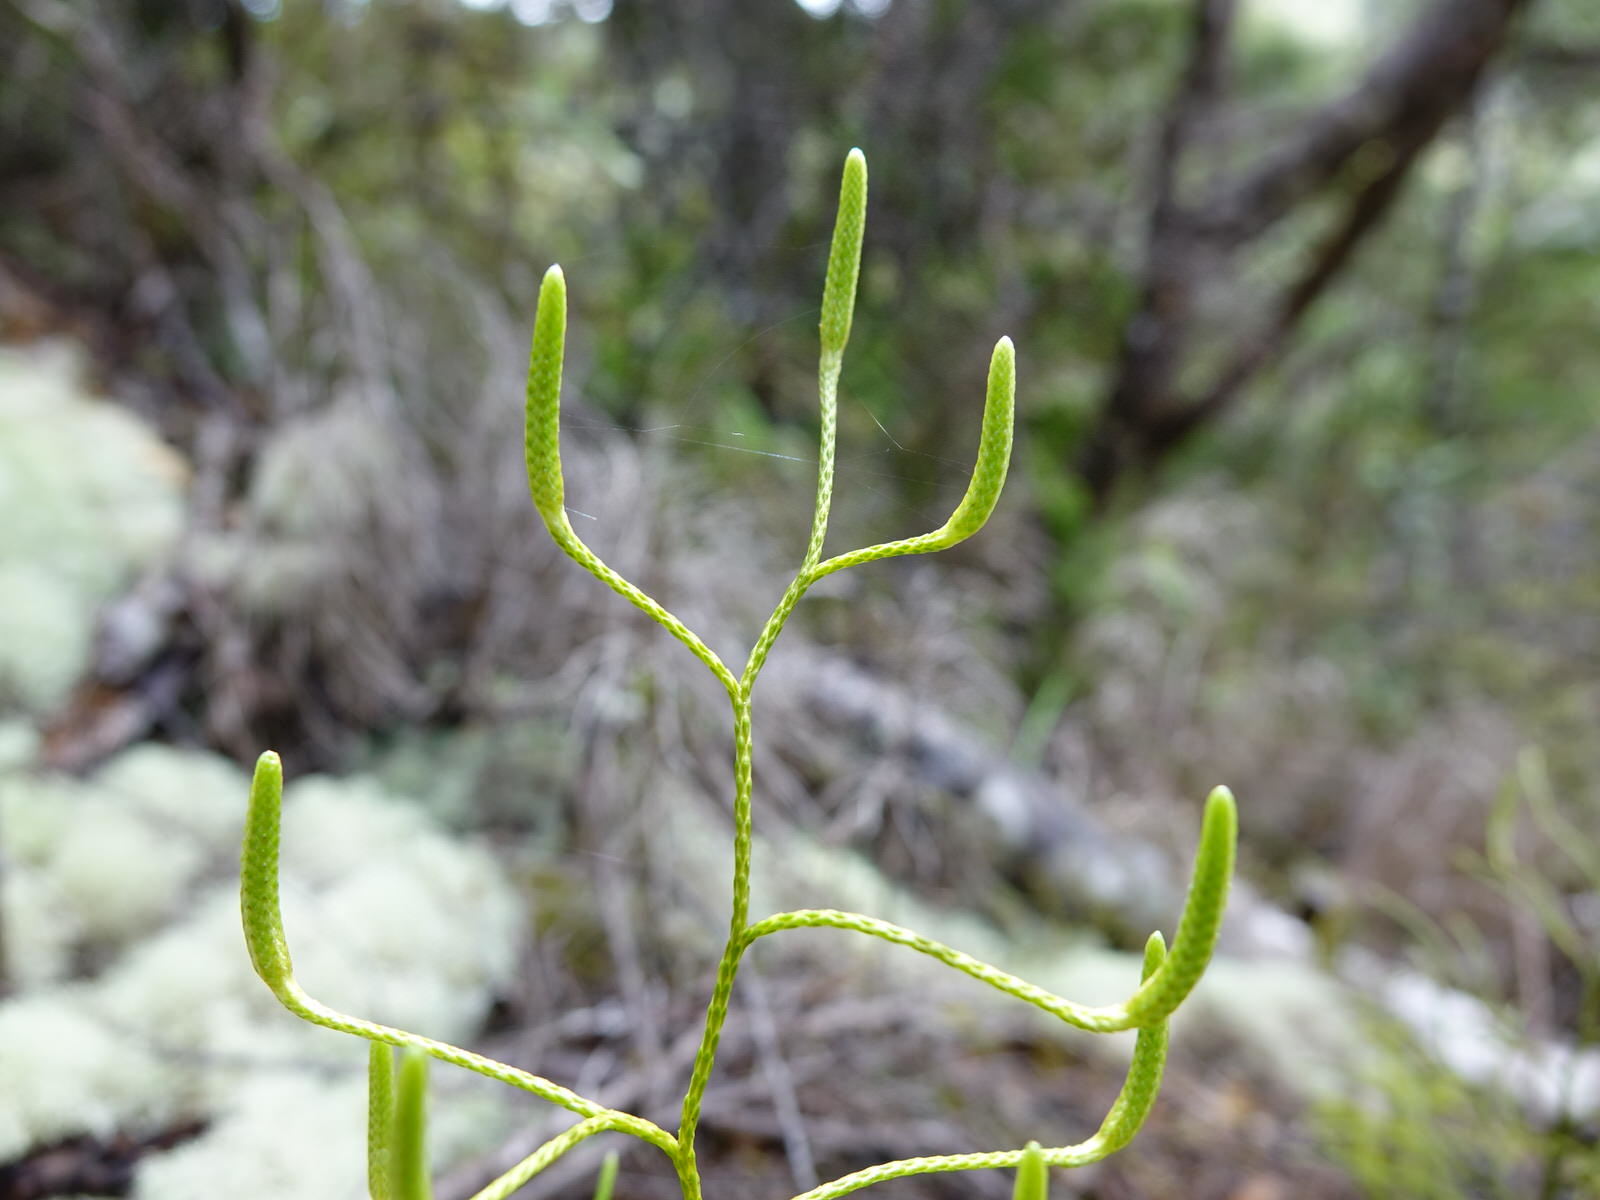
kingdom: Plantae
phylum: Tracheophyta
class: Lycopodiopsida
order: Lycopodiales
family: Lycopodiaceae
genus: Pseudolycopodium
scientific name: Pseudolycopodium densum
